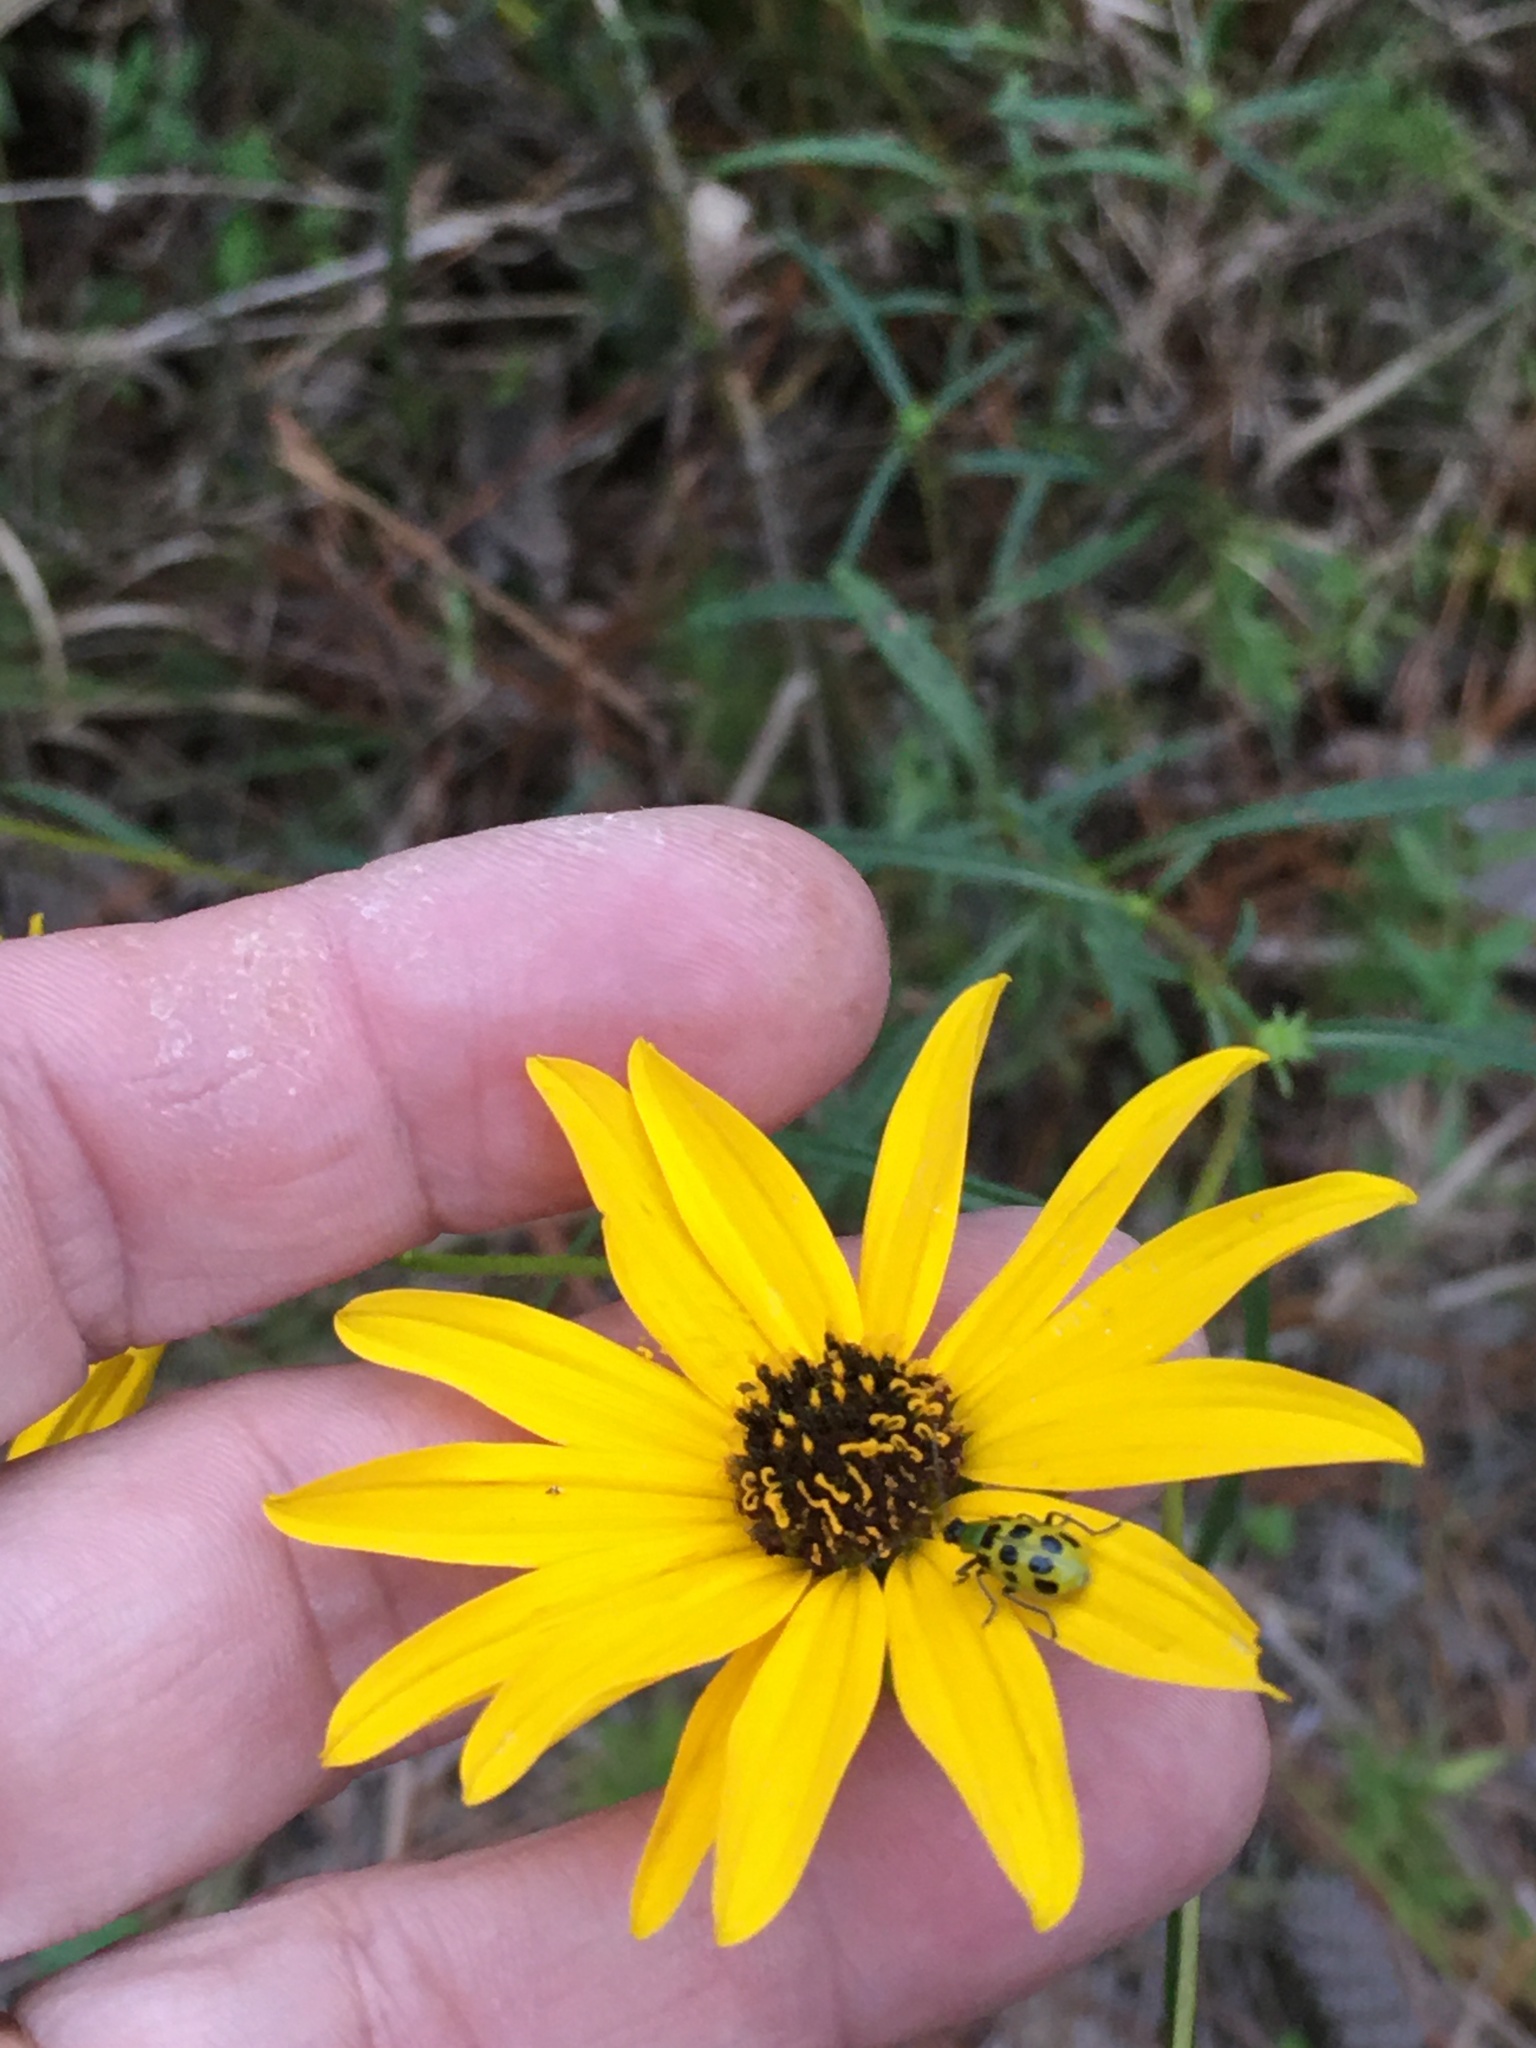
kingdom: Animalia
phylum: Arthropoda
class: Insecta
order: Coleoptera
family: Chrysomelidae
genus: Diabrotica
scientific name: Diabrotica undecimpunctata
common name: Spotted cucumber beetle
